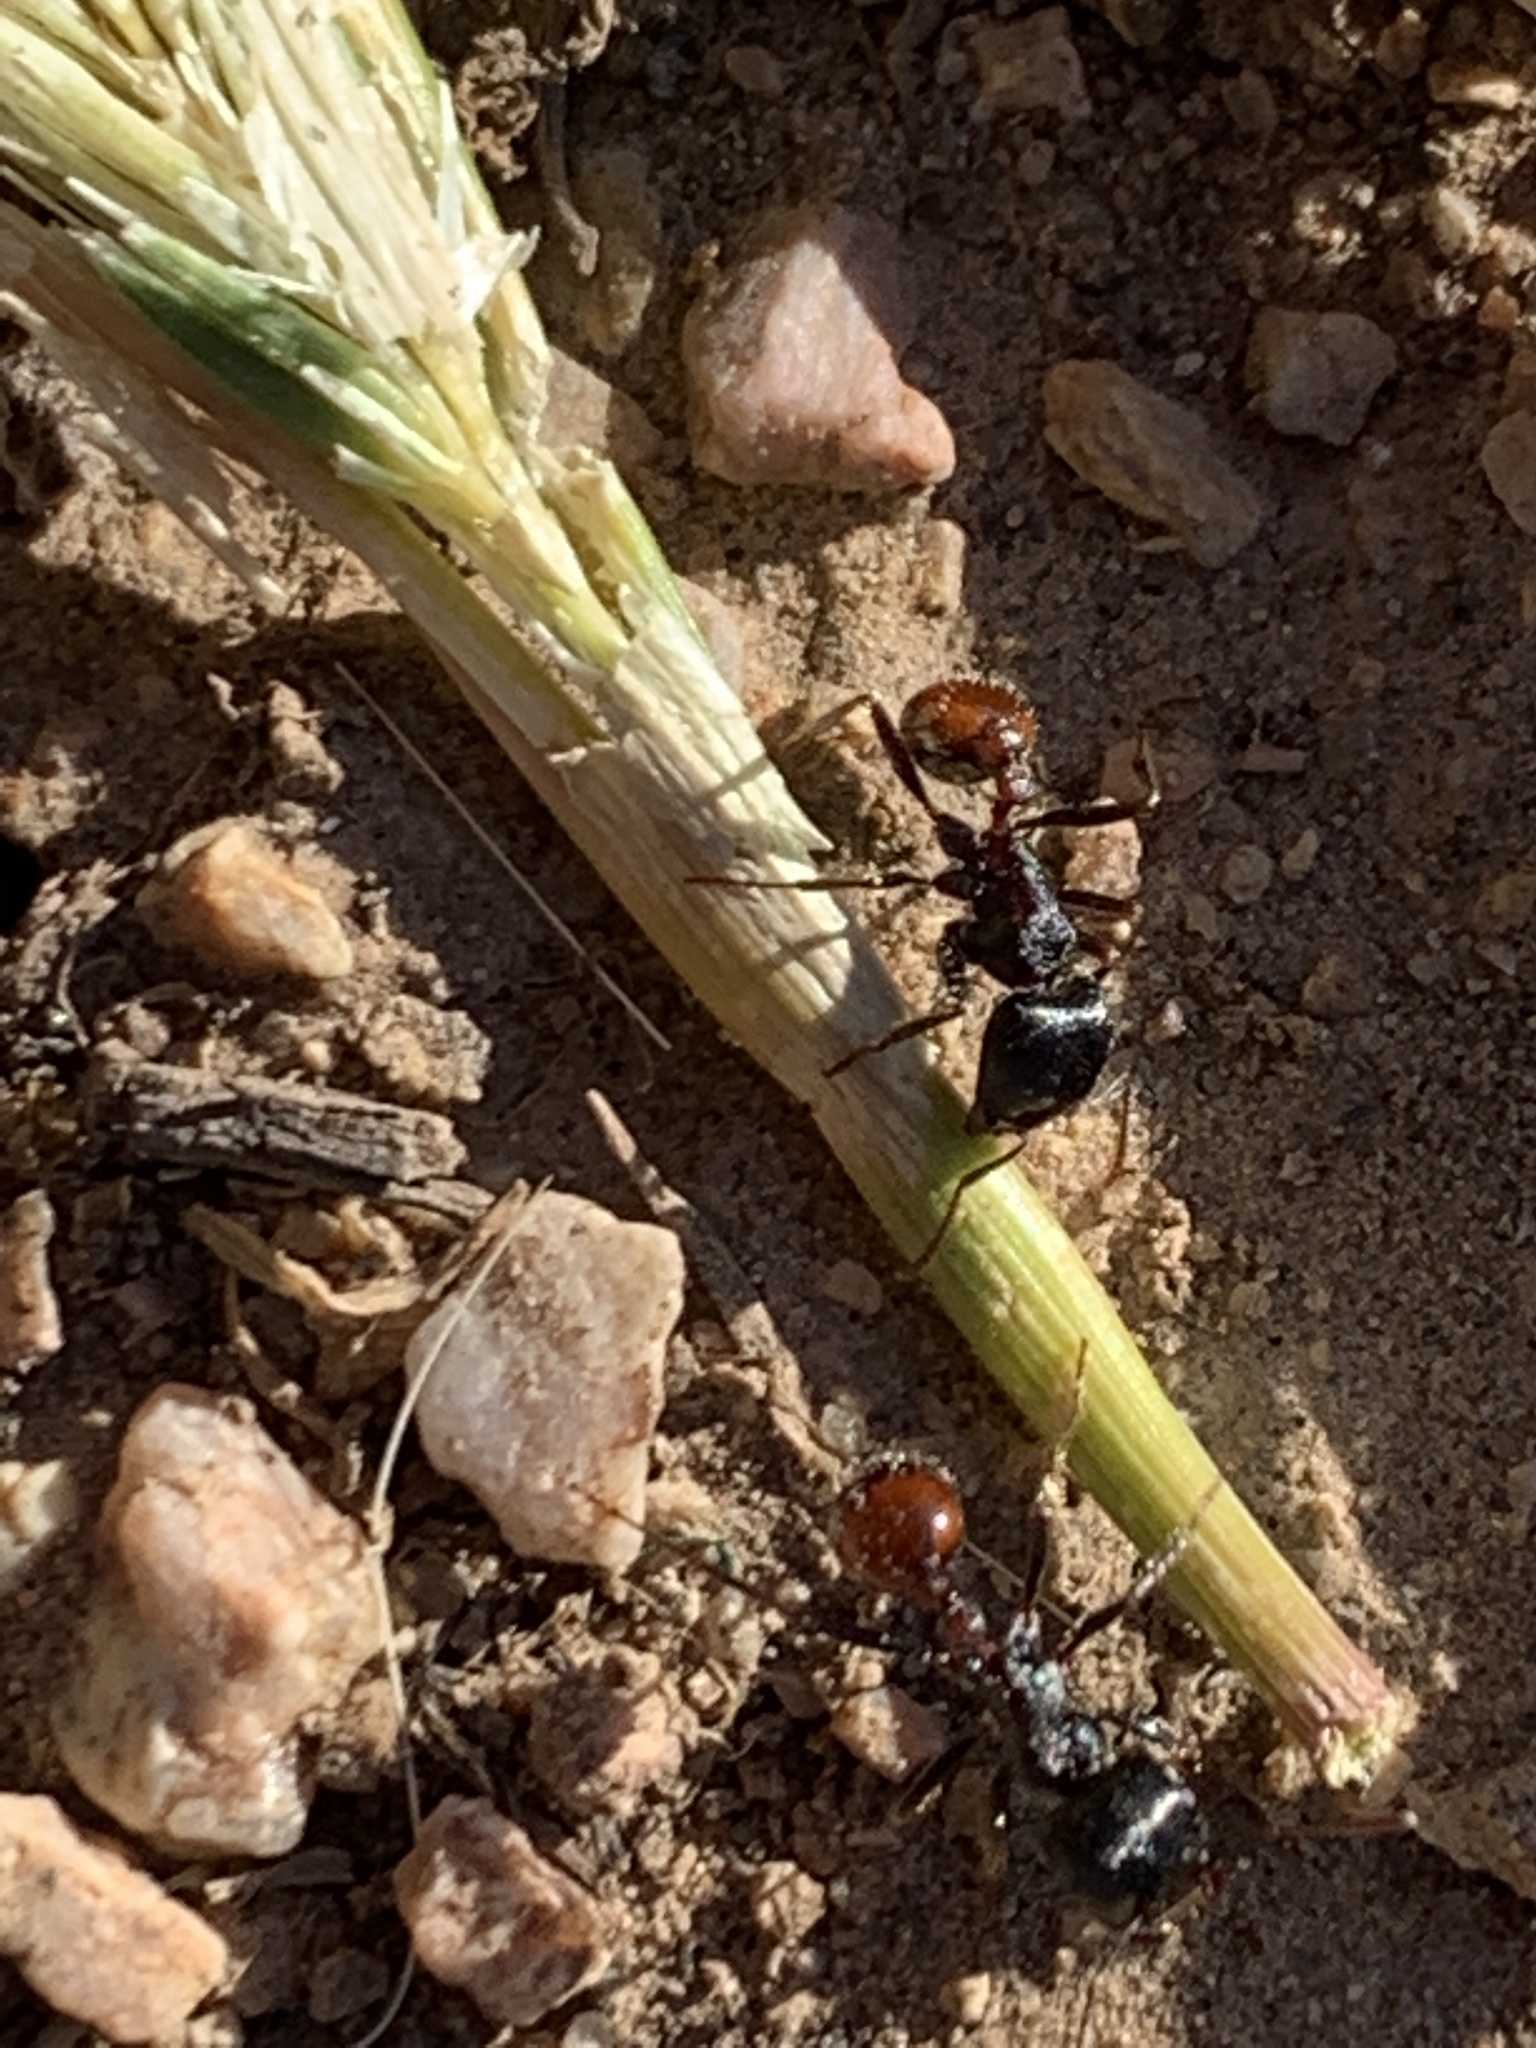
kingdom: Animalia
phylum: Arthropoda
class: Insecta
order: Hymenoptera
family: Formicidae
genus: Pogonomyrmex
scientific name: Pogonomyrmex rugosus
